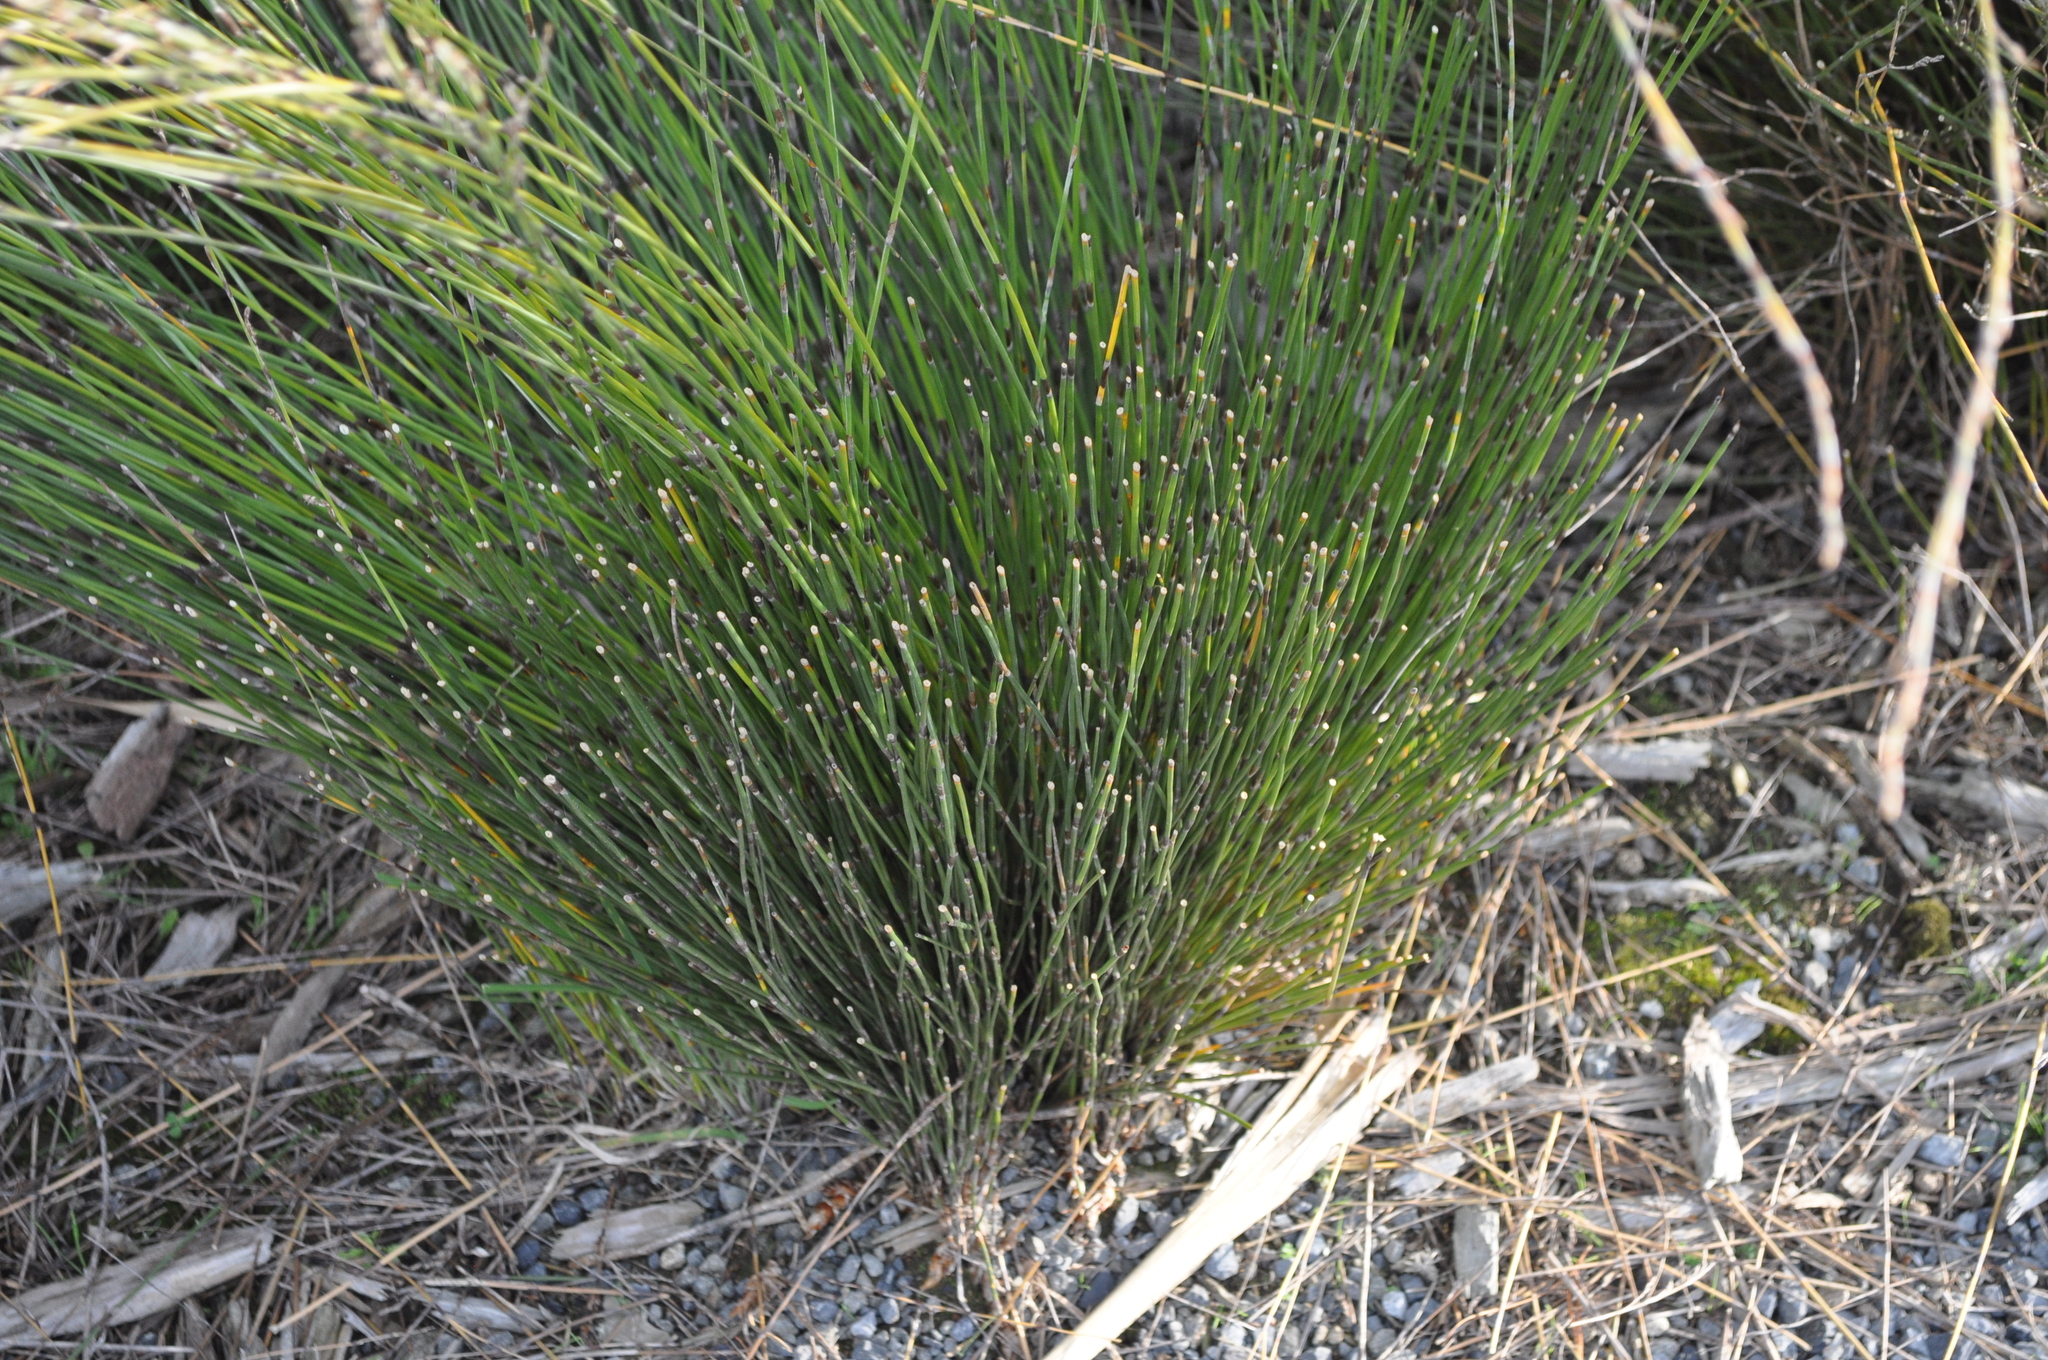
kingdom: Plantae
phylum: Tracheophyta
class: Liliopsida
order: Poales
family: Restionaceae
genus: Apodasmia
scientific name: Apodasmia similis
